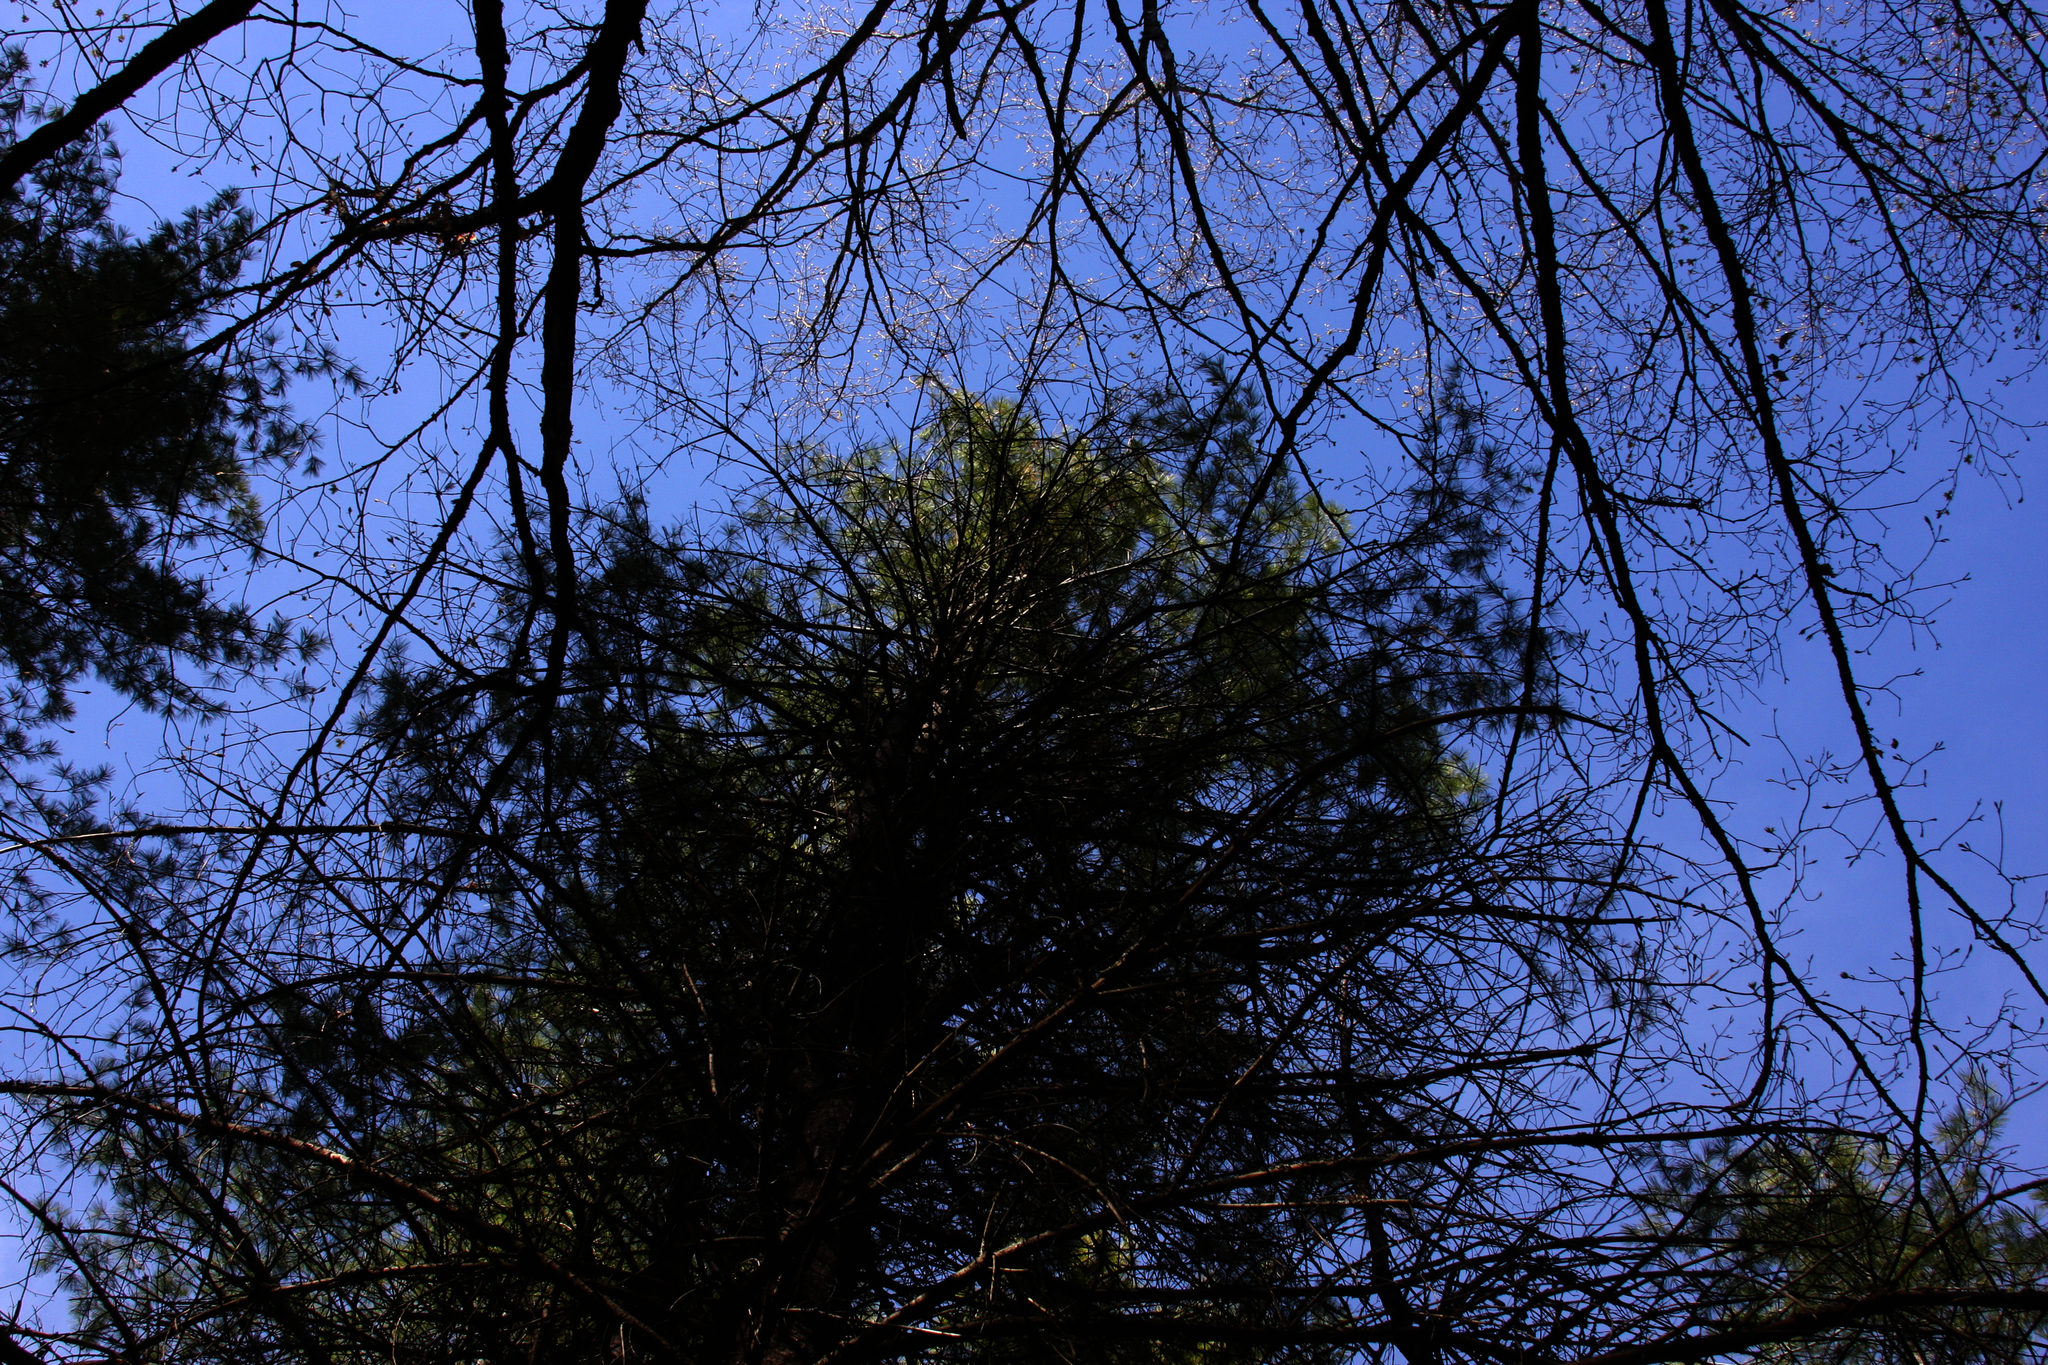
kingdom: Plantae
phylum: Tracheophyta
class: Pinopsida
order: Pinales
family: Pinaceae
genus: Pinus
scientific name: Pinus strobus
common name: Weymouth pine
